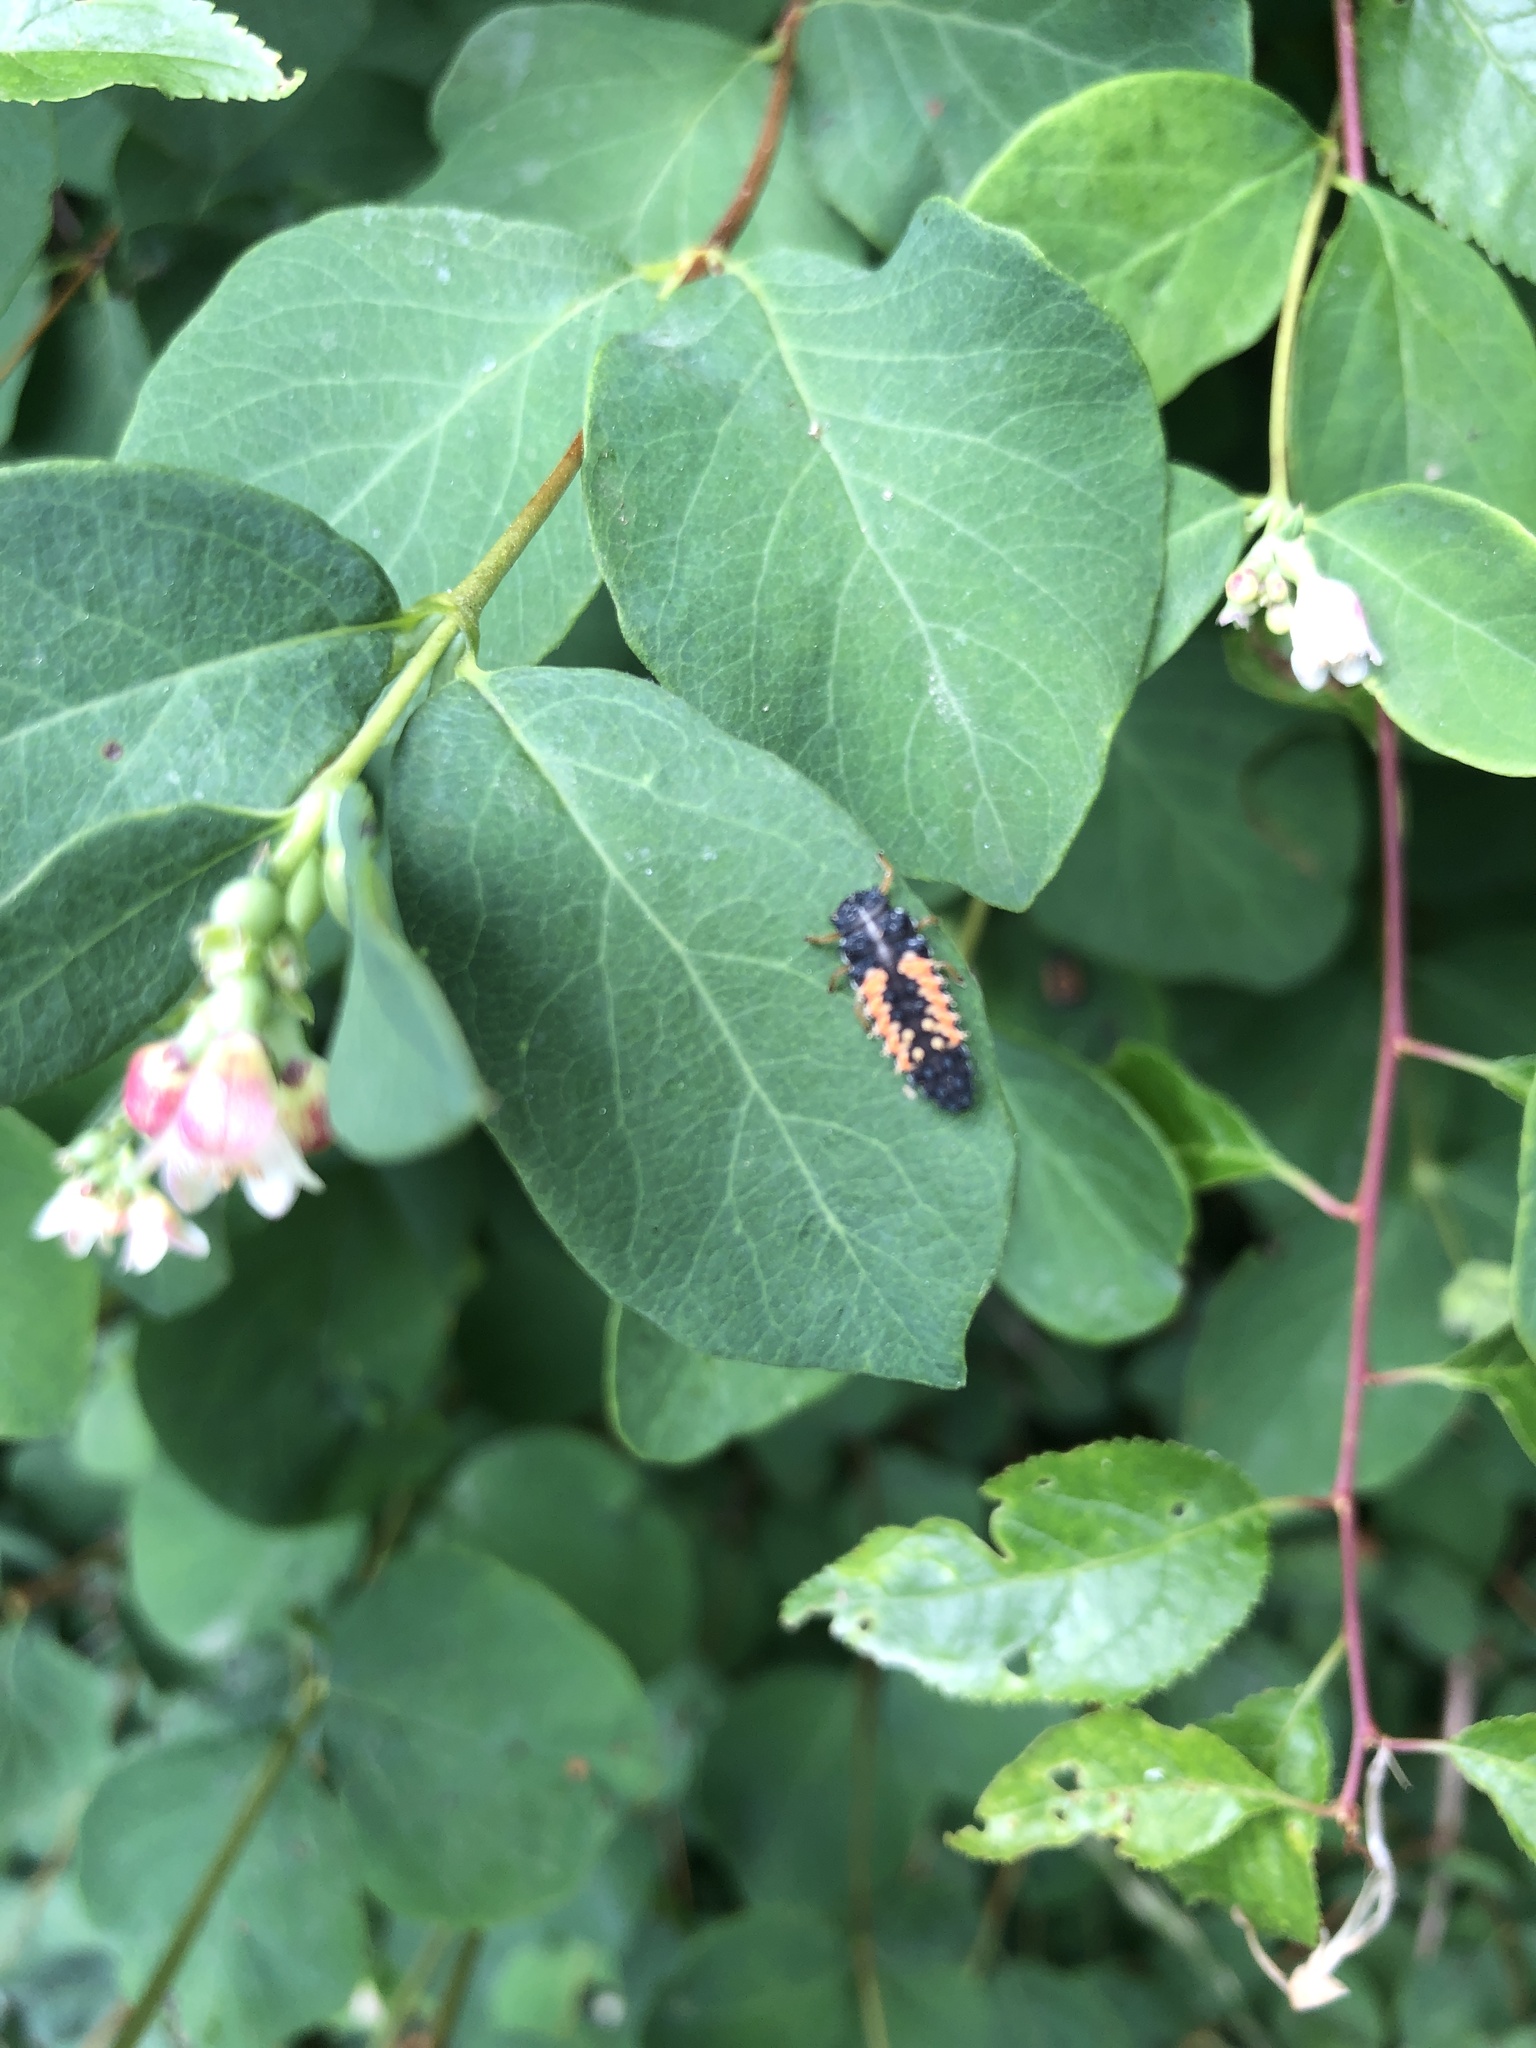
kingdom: Animalia
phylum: Arthropoda
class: Insecta
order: Coleoptera
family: Coccinellidae
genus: Harmonia
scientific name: Harmonia axyridis
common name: Harlequin ladybird
